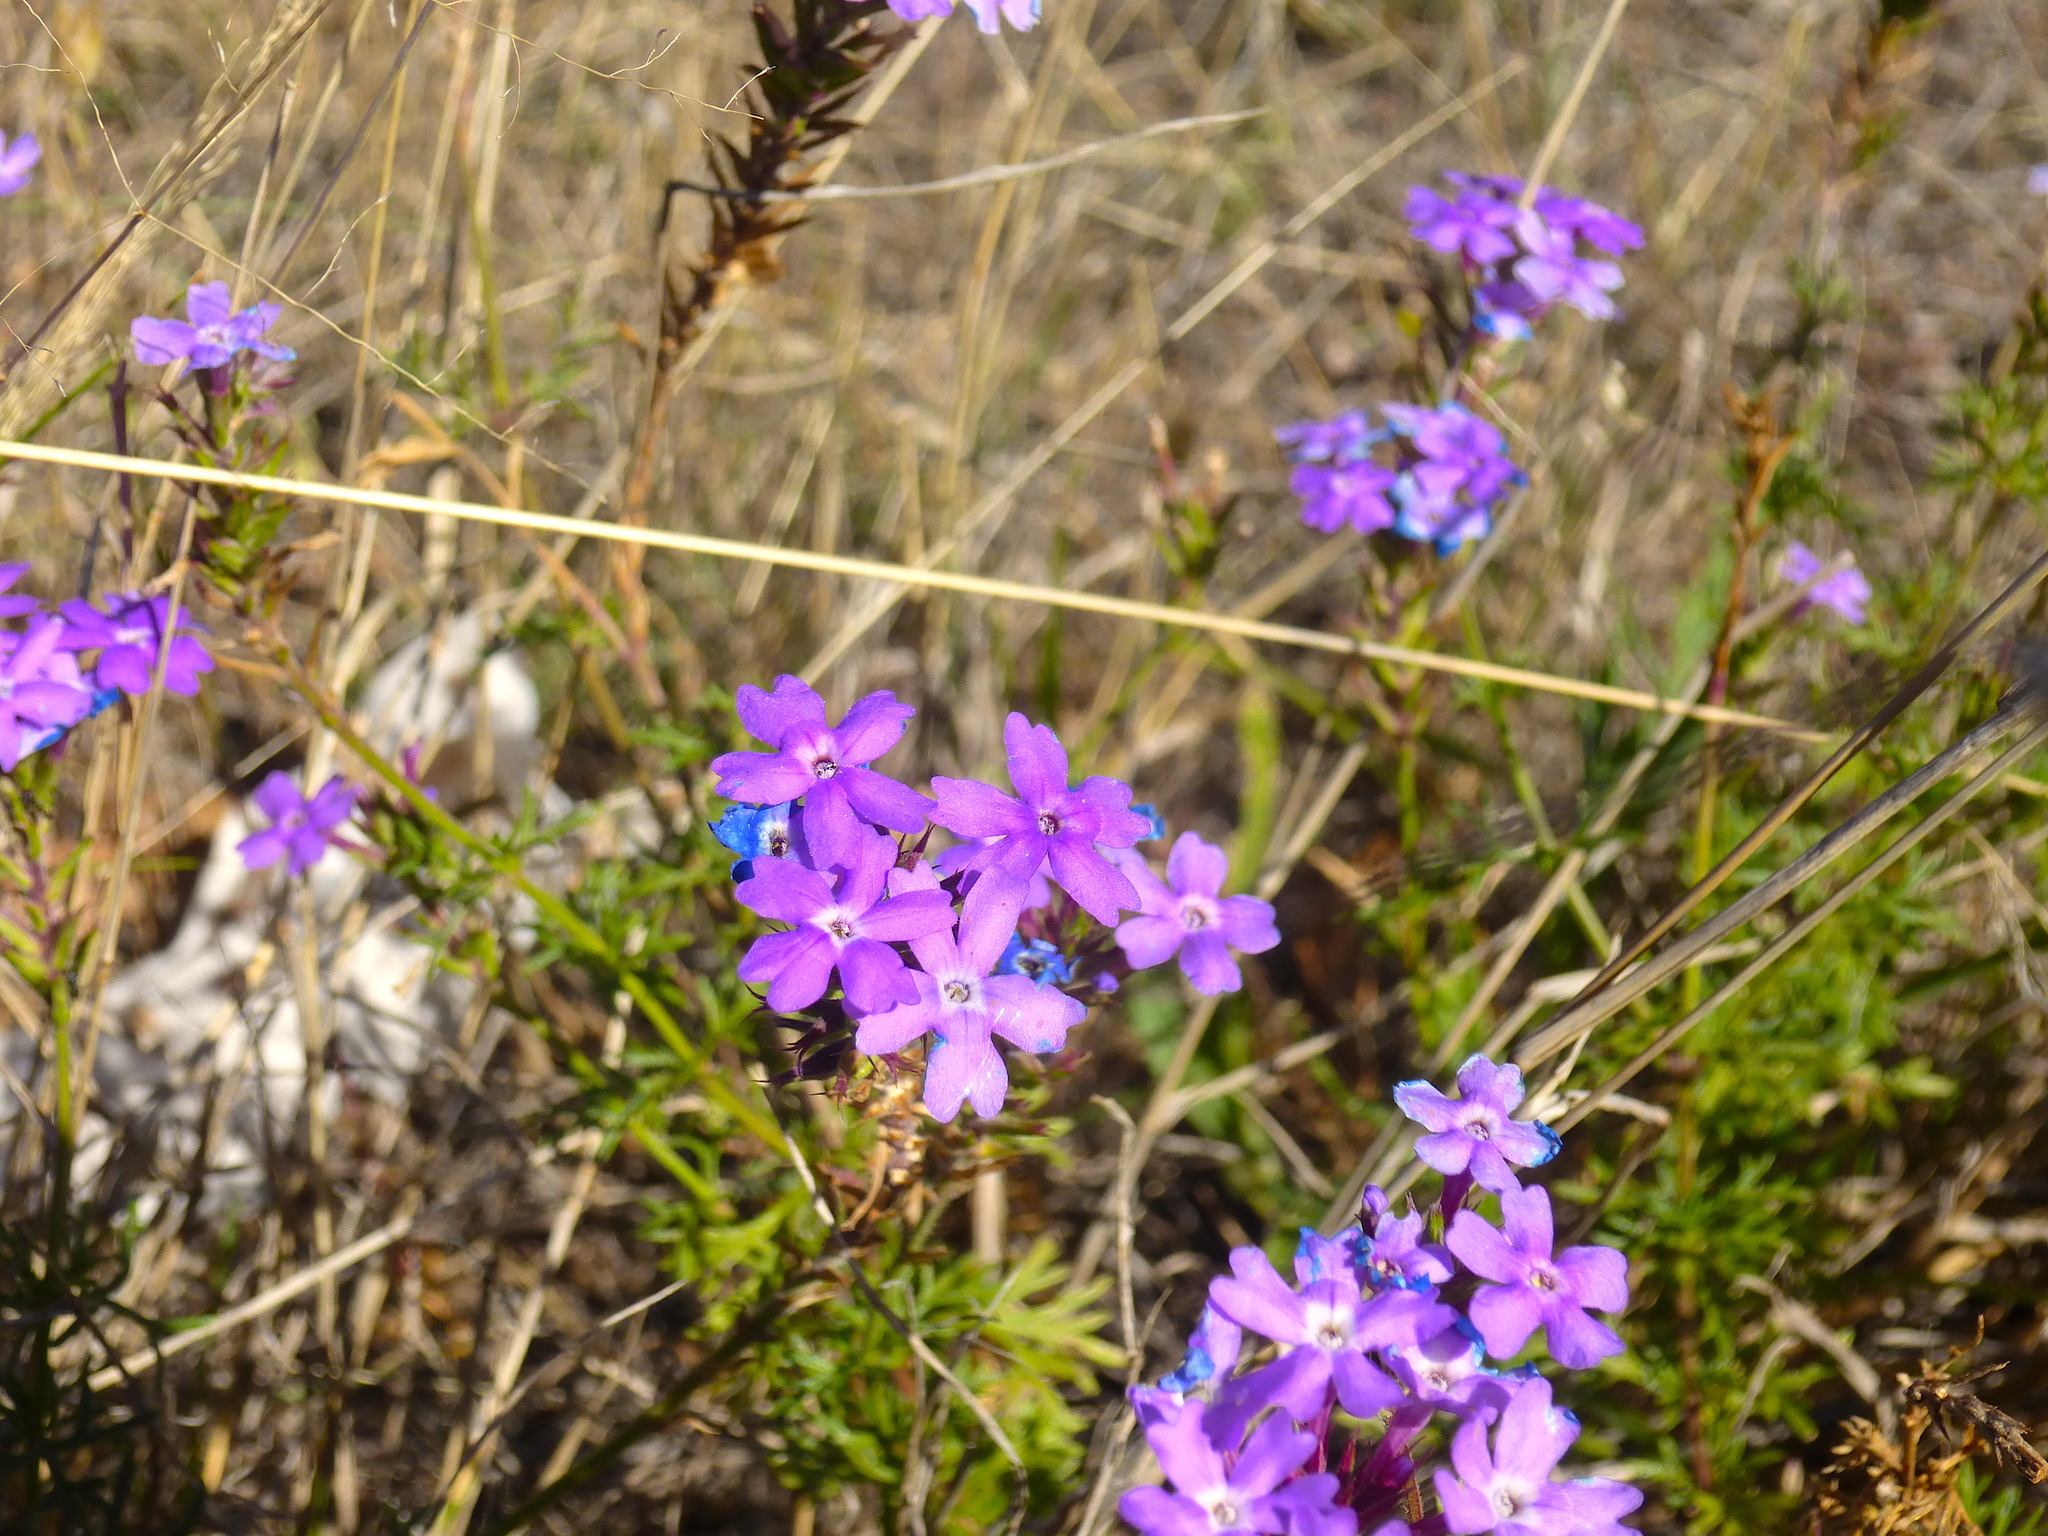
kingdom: Plantae
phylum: Tracheophyta
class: Magnoliopsida
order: Lamiales
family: Verbenaceae
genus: Verbena
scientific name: Verbena aristigera
